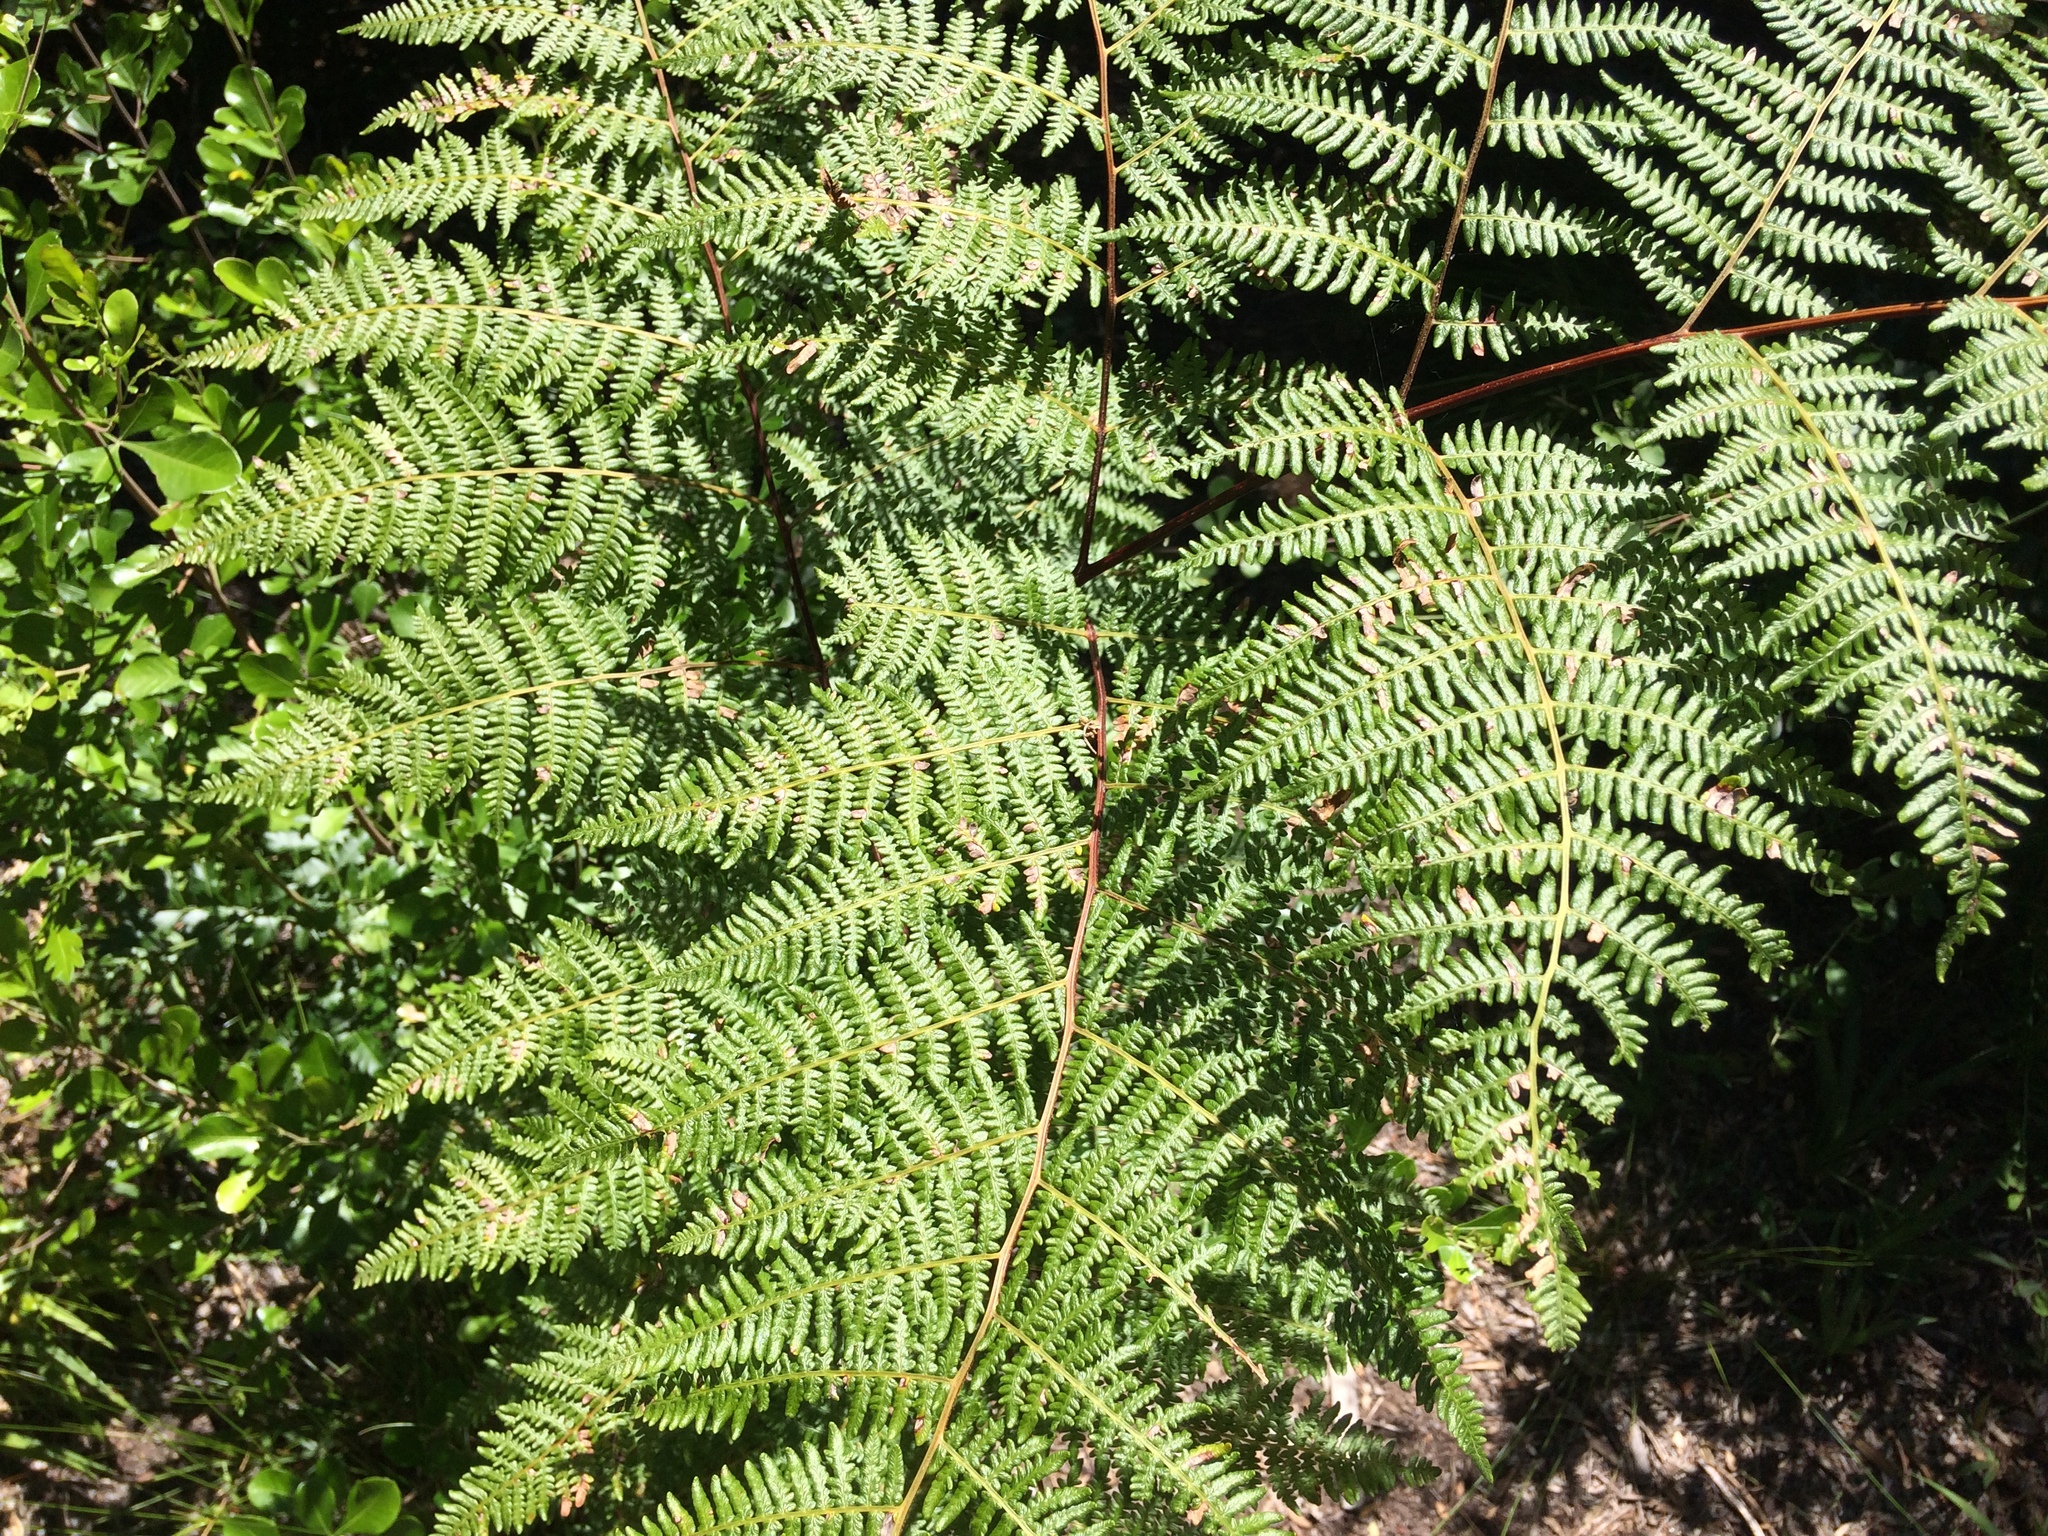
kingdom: Plantae
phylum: Tracheophyta
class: Polypodiopsida
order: Polypodiales
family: Dennstaedtiaceae
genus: Pteridium
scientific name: Pteridium aquilinum
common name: Bracken
